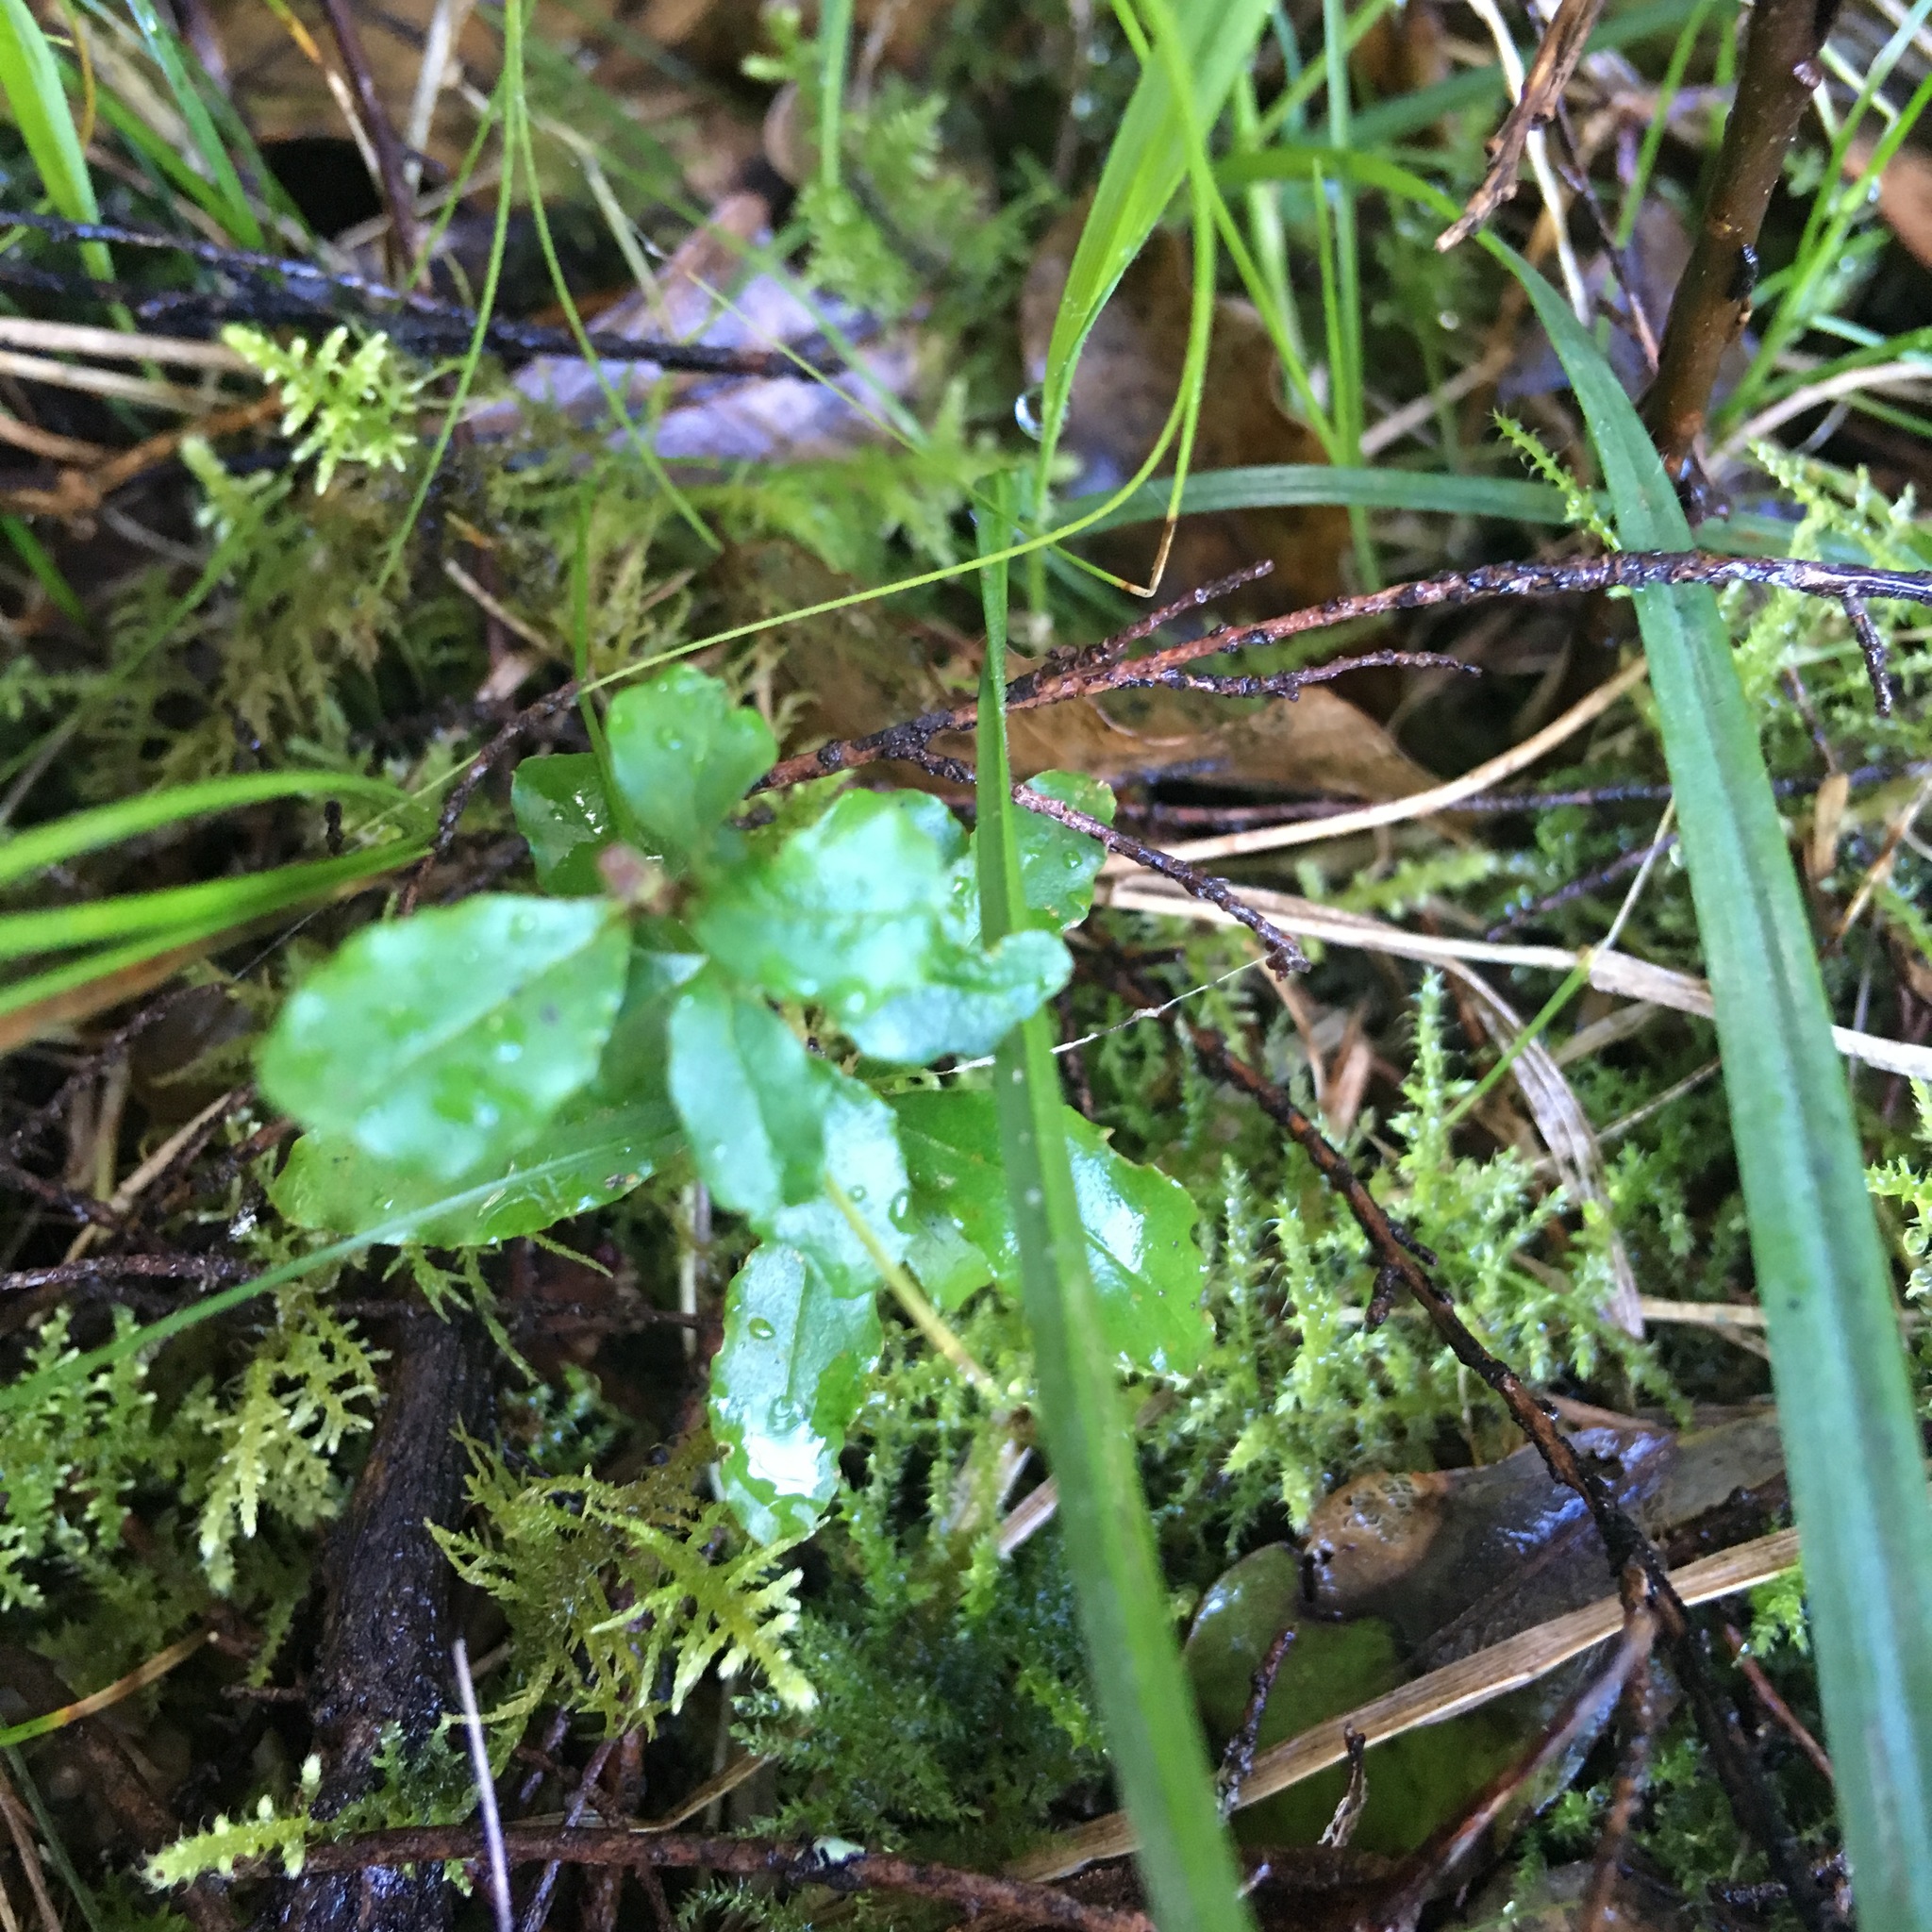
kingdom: Plantae
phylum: Tracheophyta
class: Magnoliopsida
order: Lamiales
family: Oleaceae
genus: Ligustrum
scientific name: Ligustrum sinense
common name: Chinese privet
